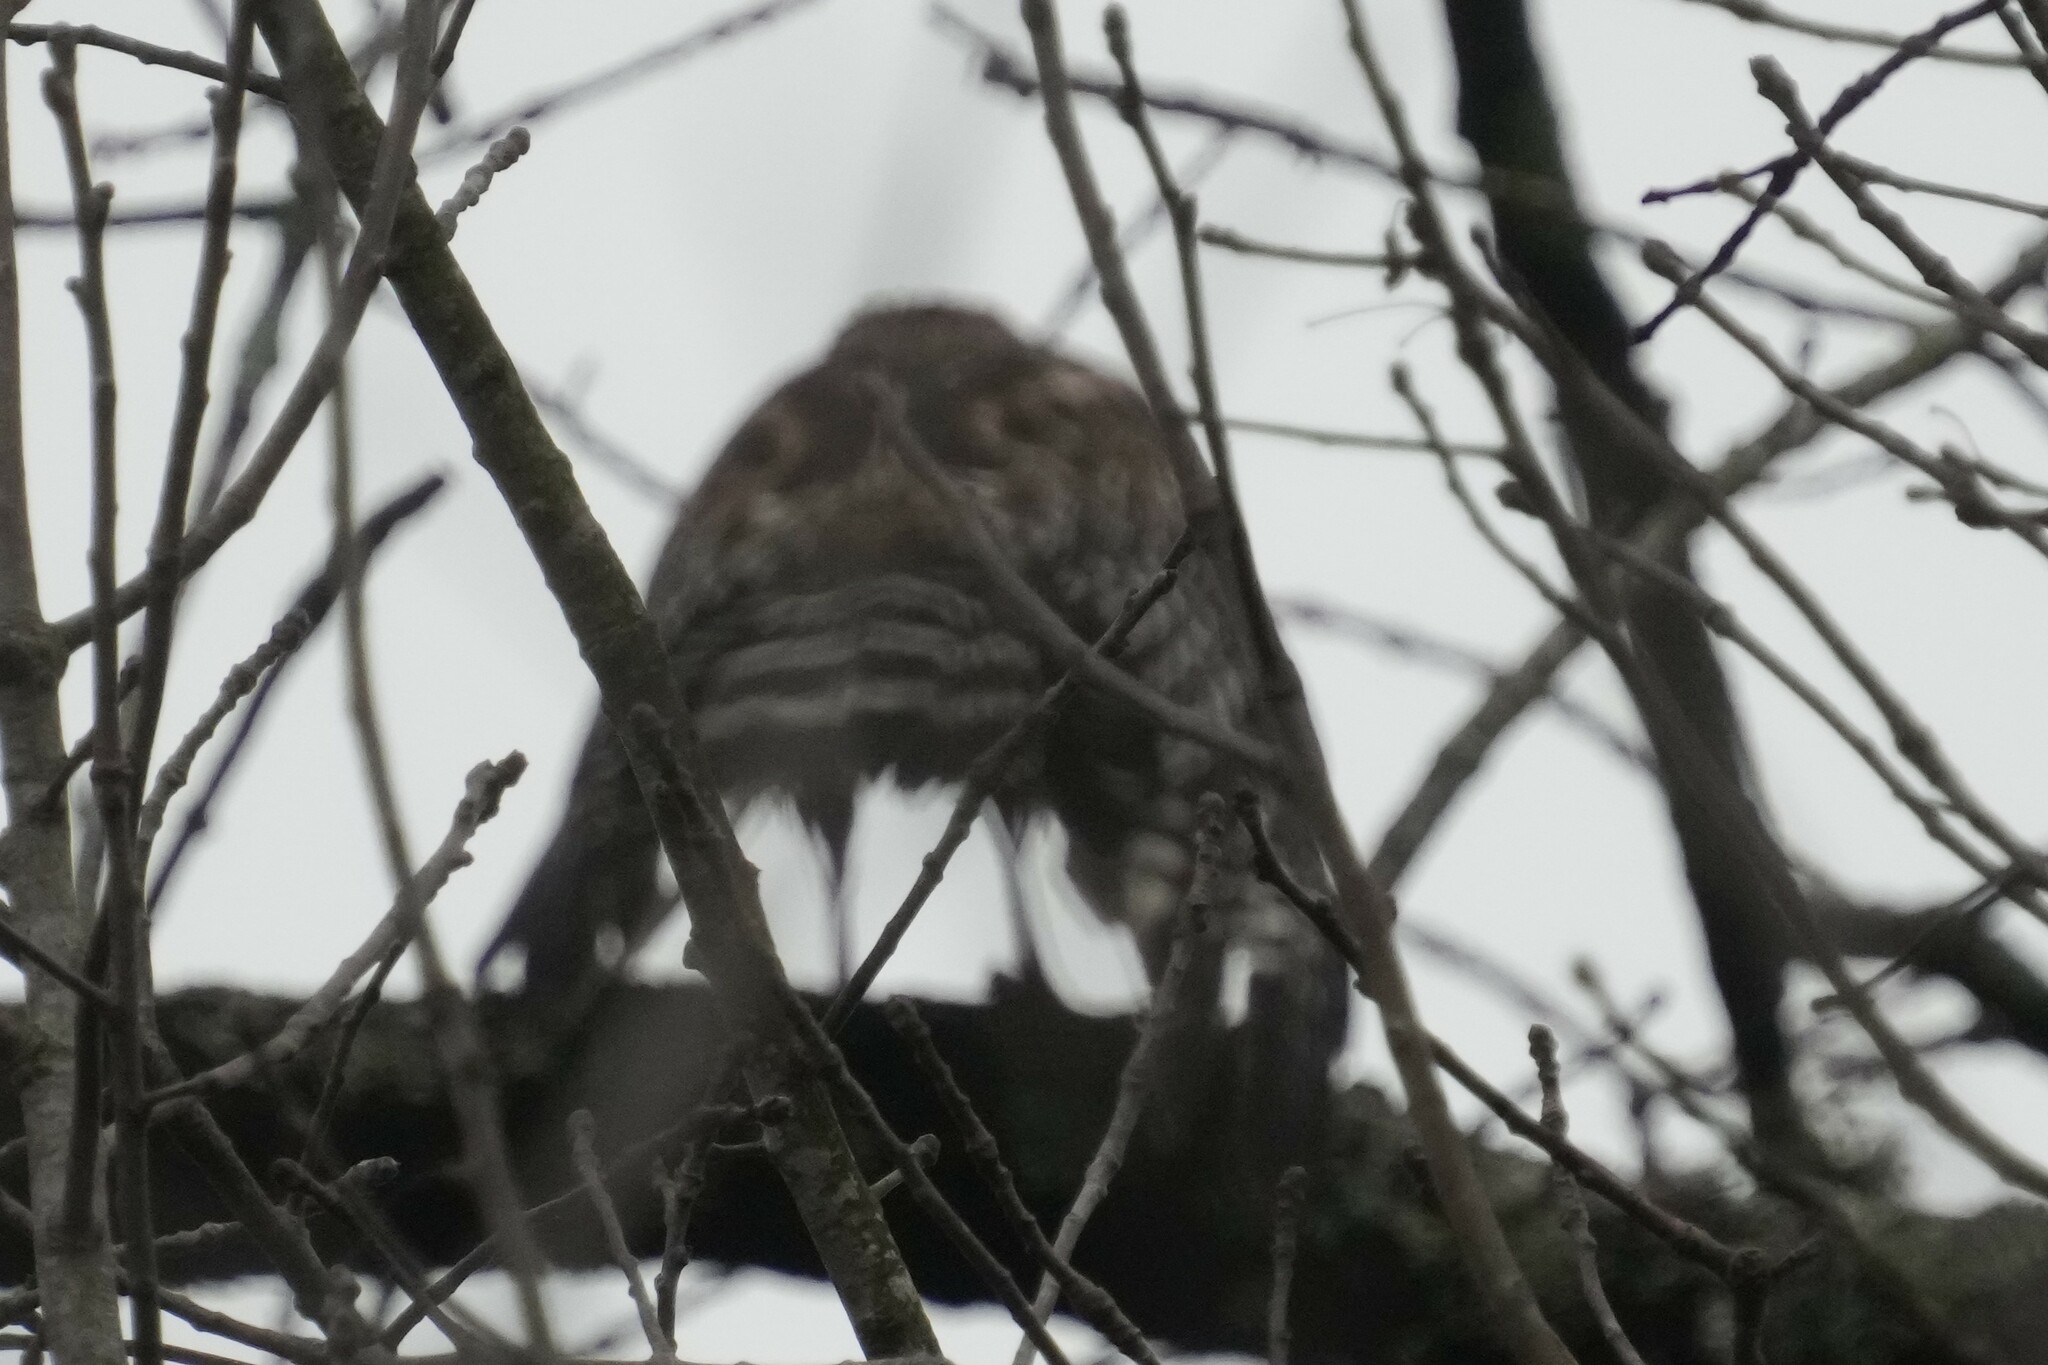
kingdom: Animalia
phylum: Chordata
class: Aves
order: Accipitriformes
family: Accipitridae
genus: Buteo
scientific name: Buteo lineatus
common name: Red-shouldered hawk
